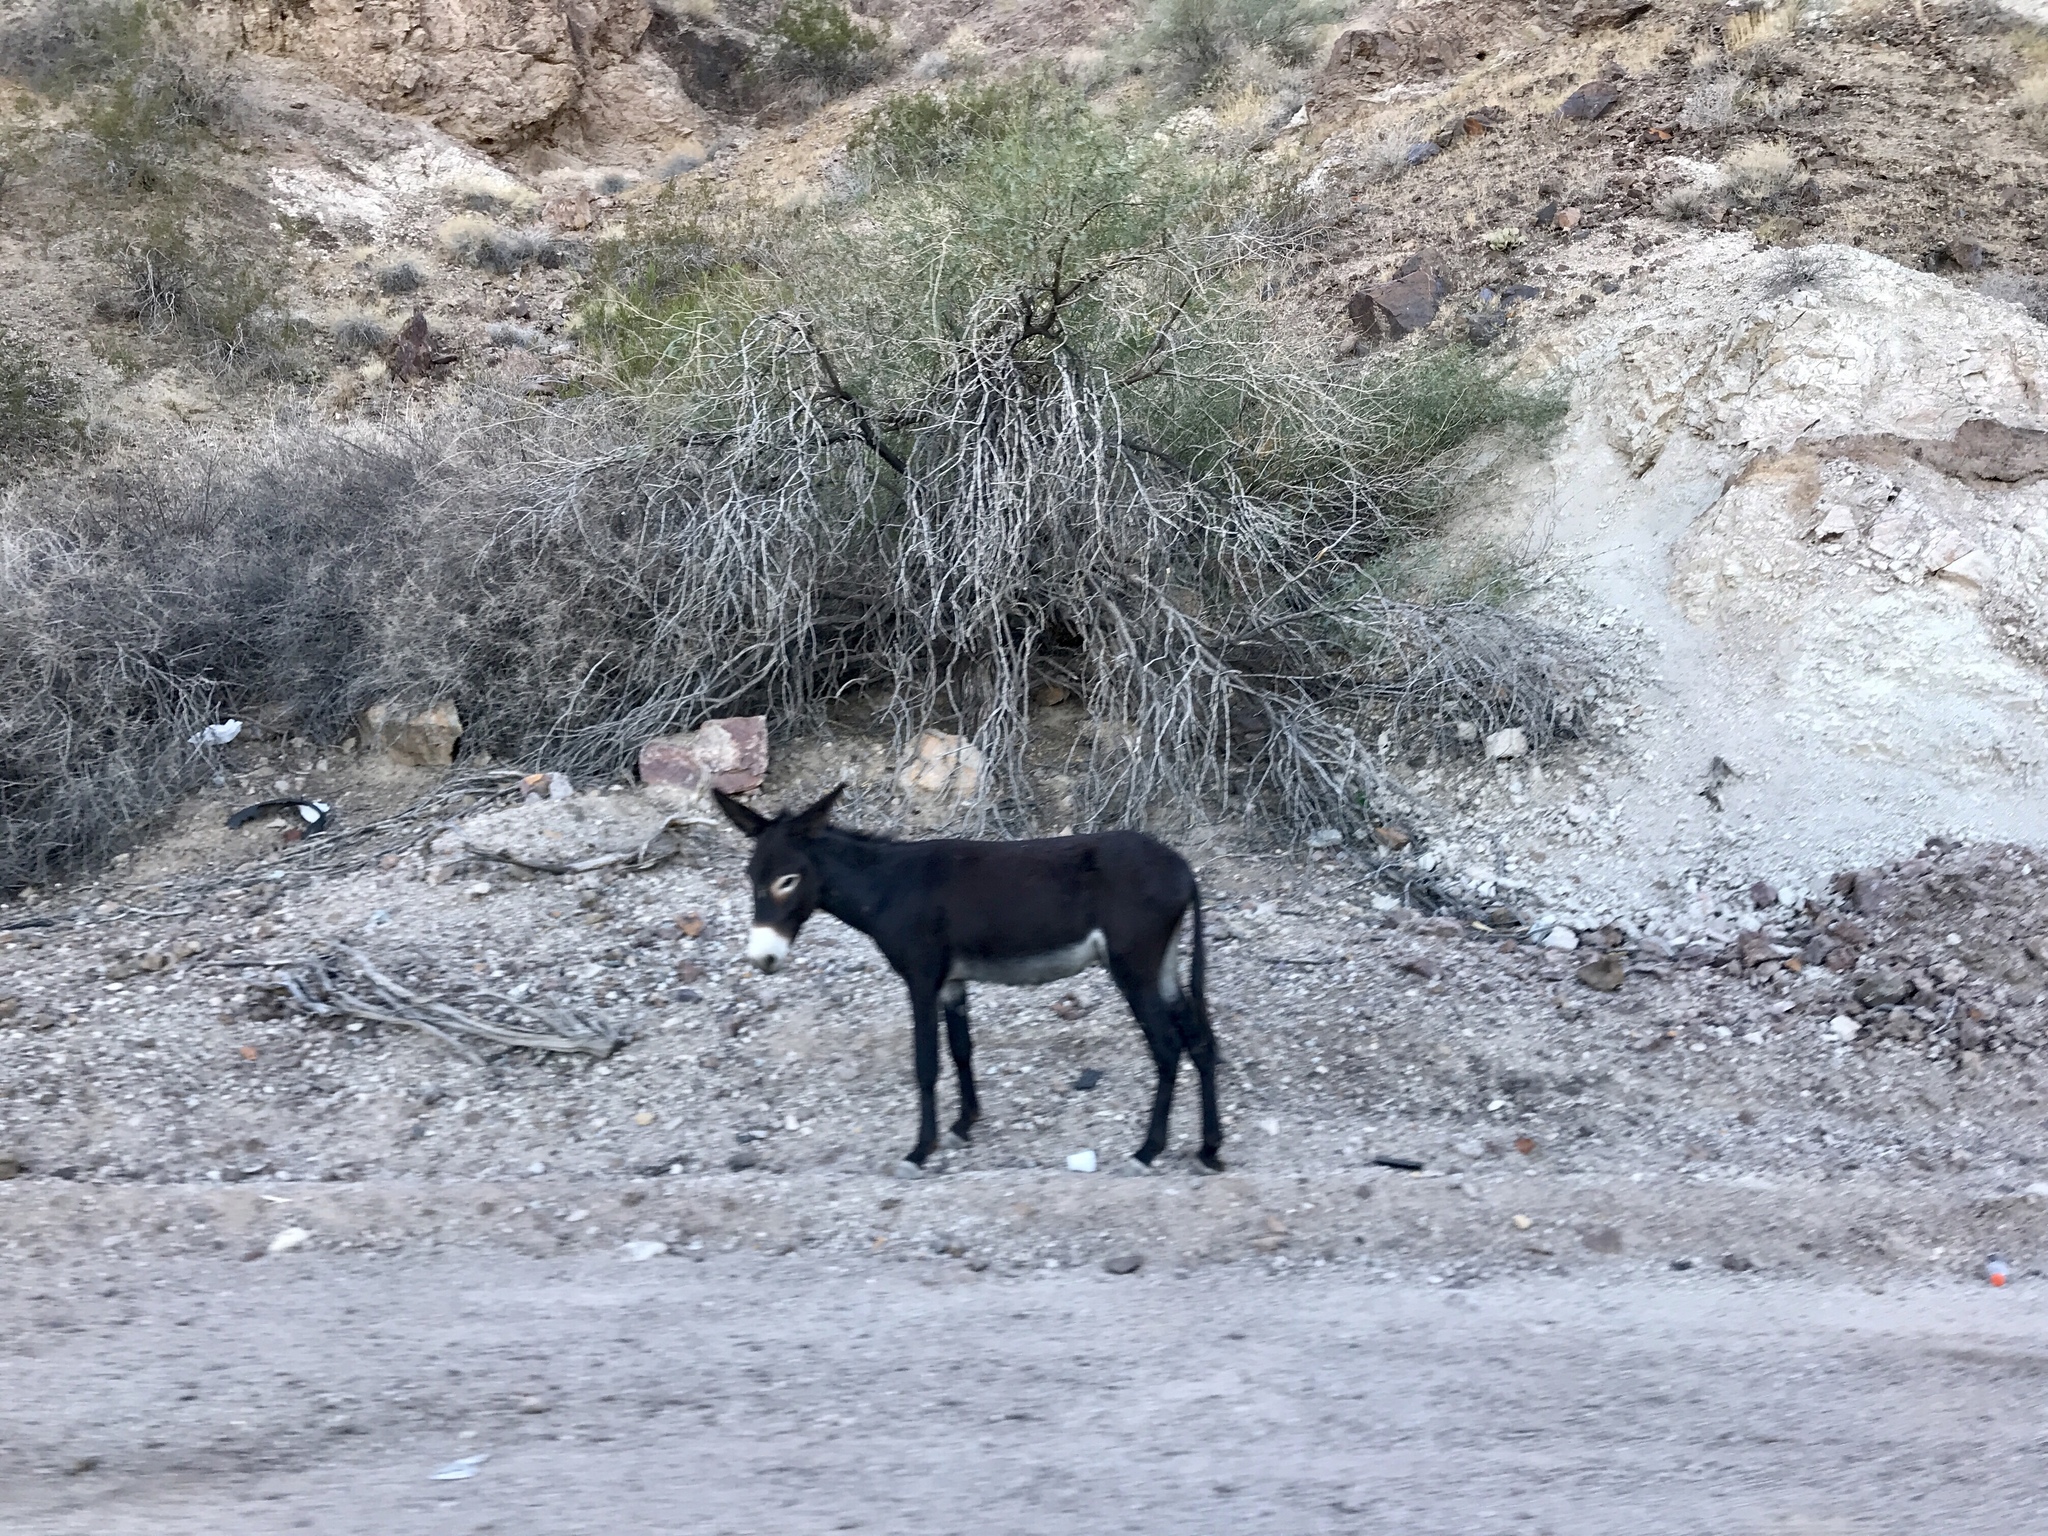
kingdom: Animalia
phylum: Chordata
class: Mammalia
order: Perissodactyla
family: Equidae
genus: Equus
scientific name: Equus asinus
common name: Ass
